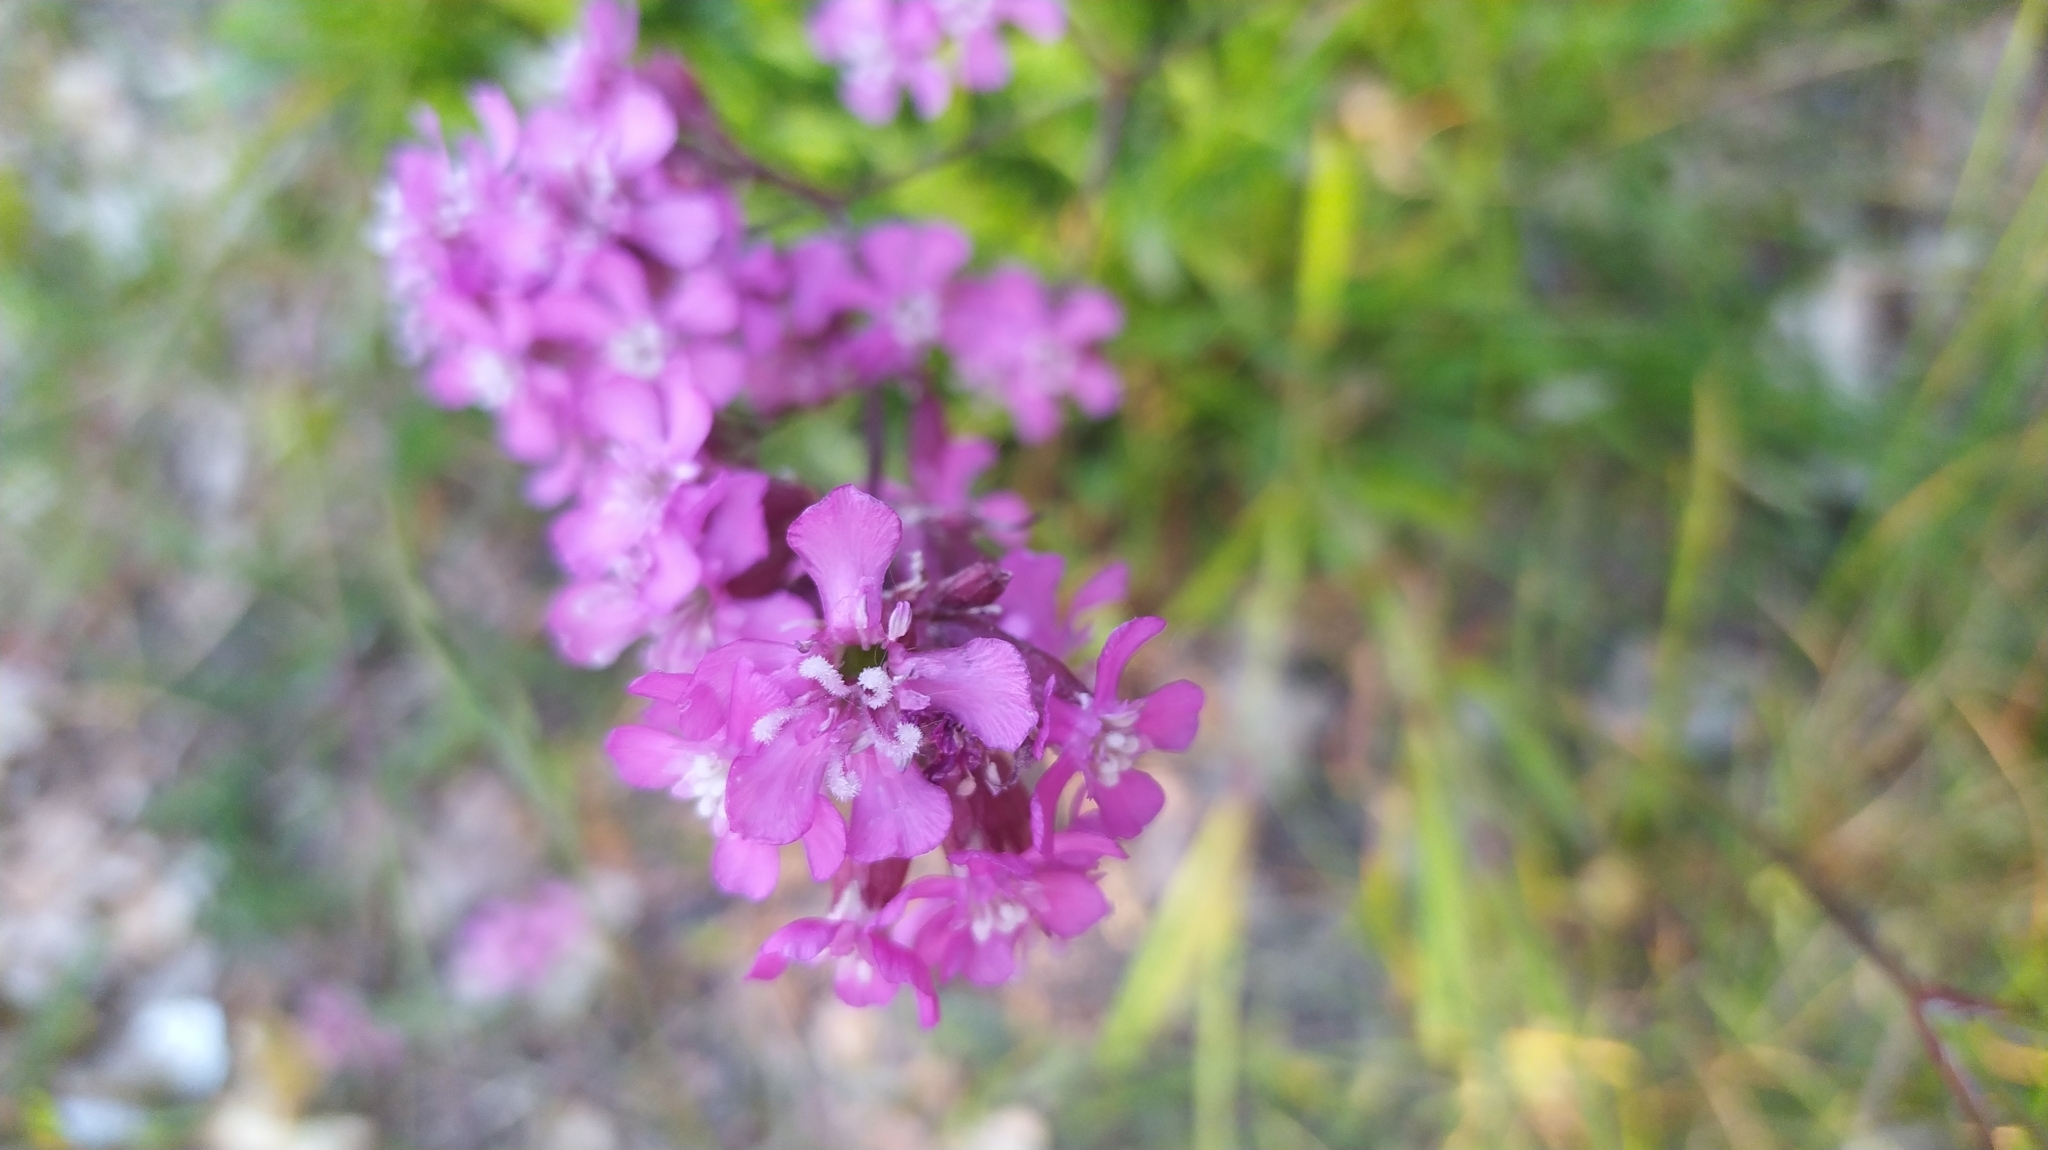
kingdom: Plantae
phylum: Tracheophyta
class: Magnoliopsida
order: Caryophyllales
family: Caryophyllaceae
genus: Viscaria
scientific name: Viscaria vulgaris
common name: Clammy campion
